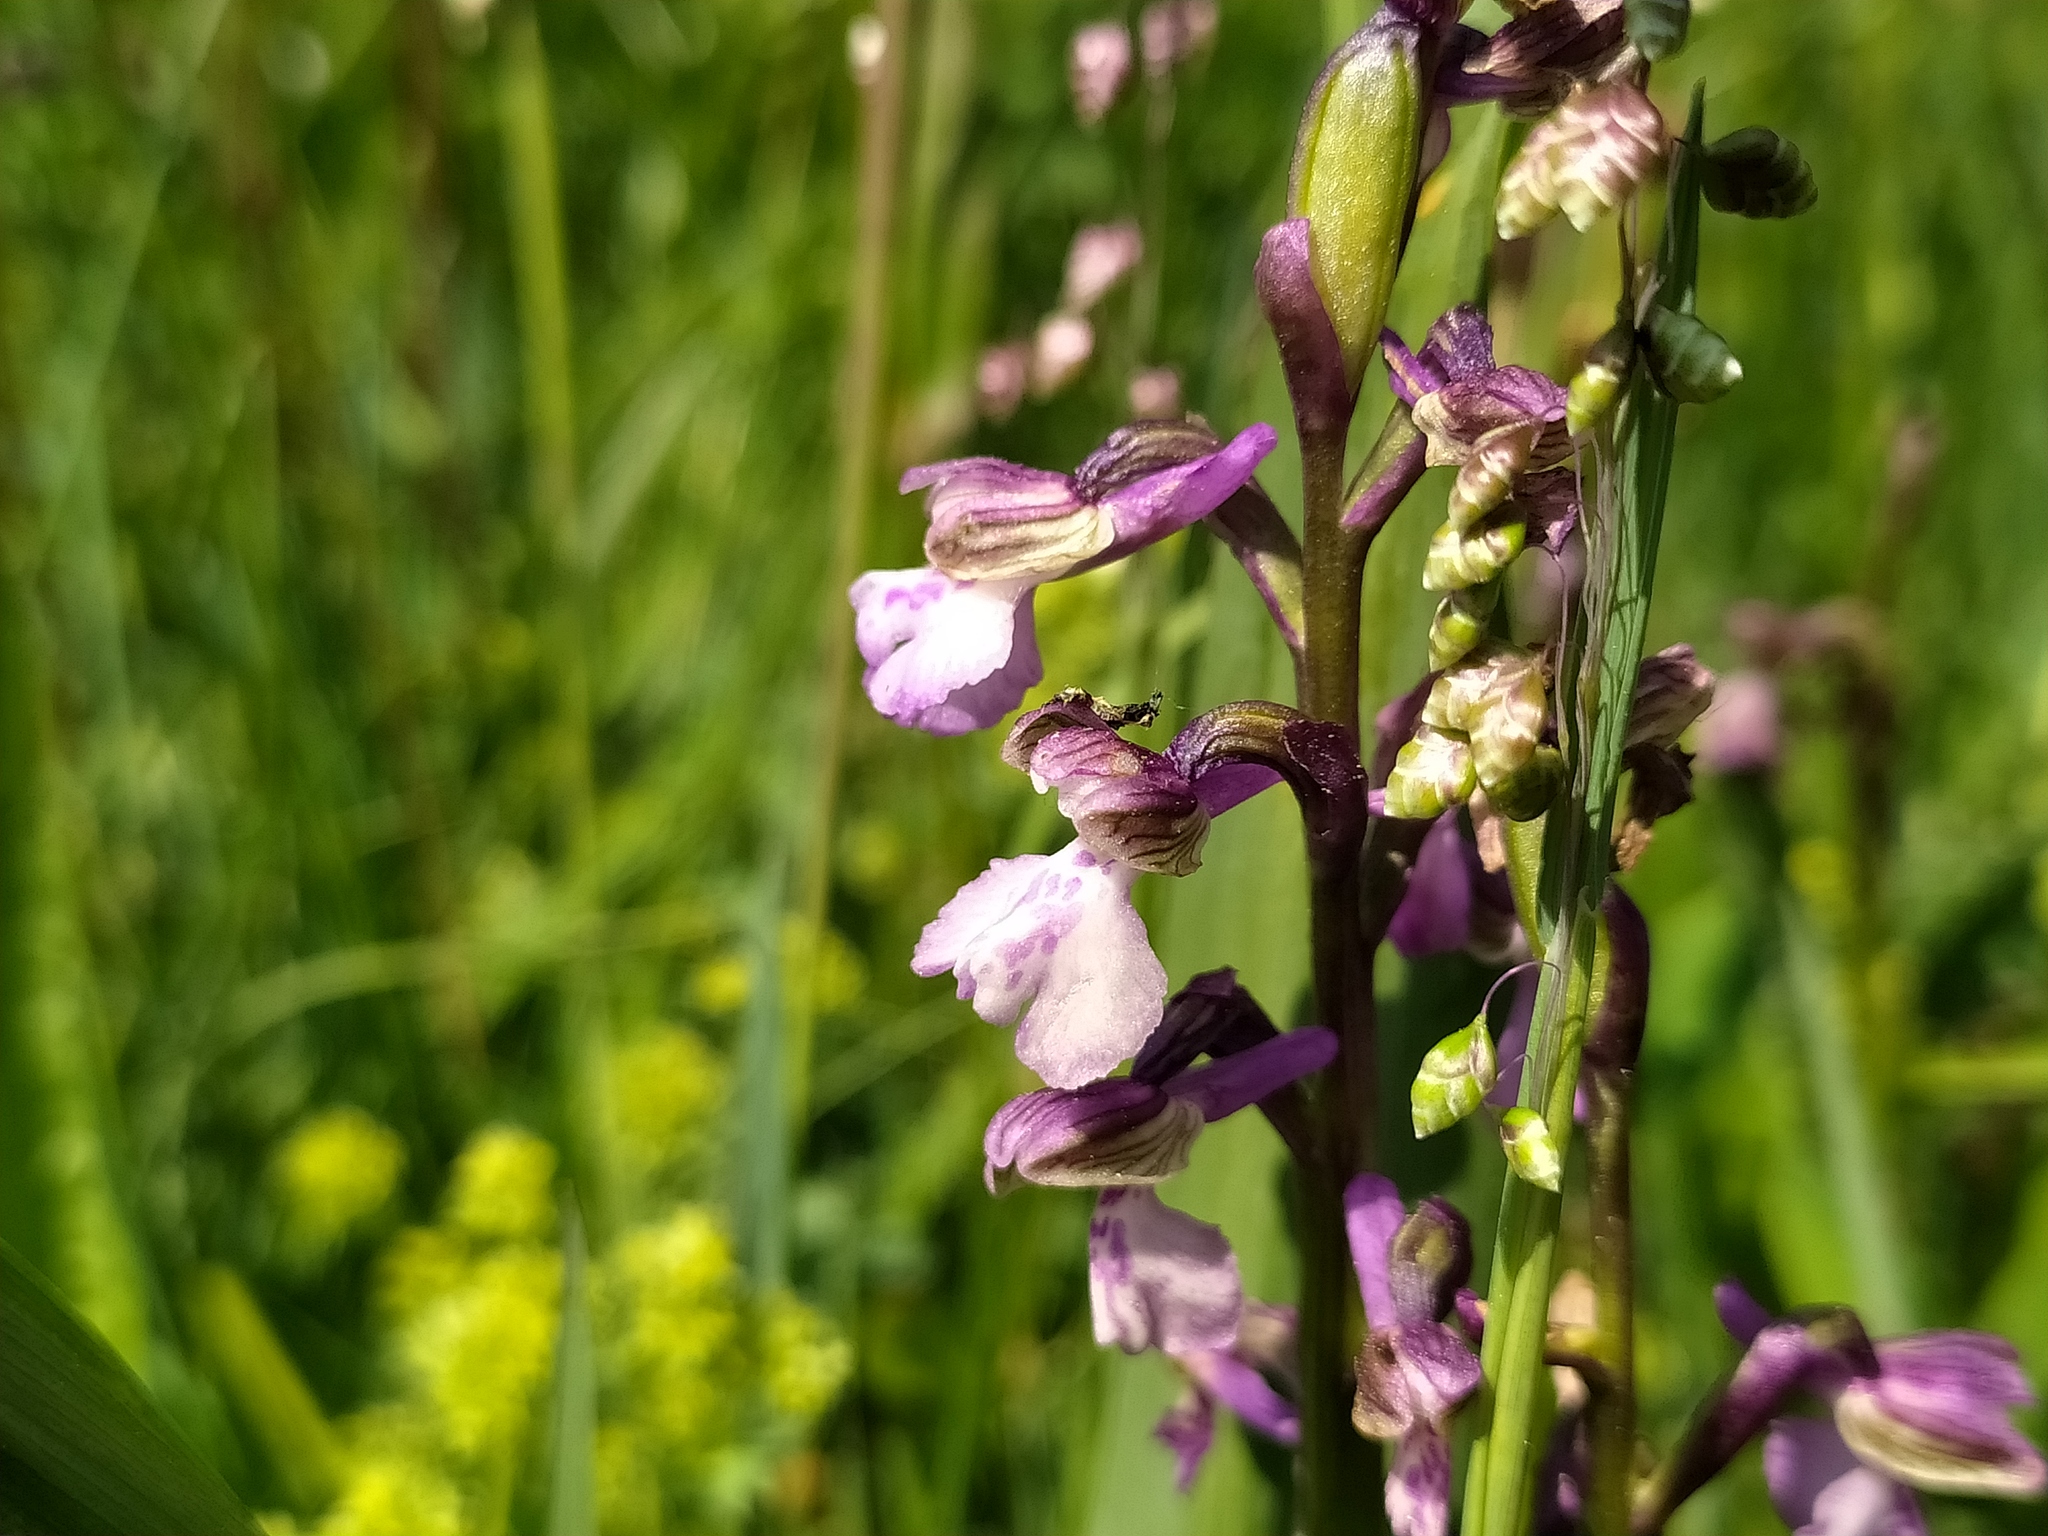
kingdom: Plantae
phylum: Tracheophyta
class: Liliopsida
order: Asparagales
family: Orchidaceae
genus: Anacamptis
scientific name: Anacamptis morio
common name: Green-winged orchid
